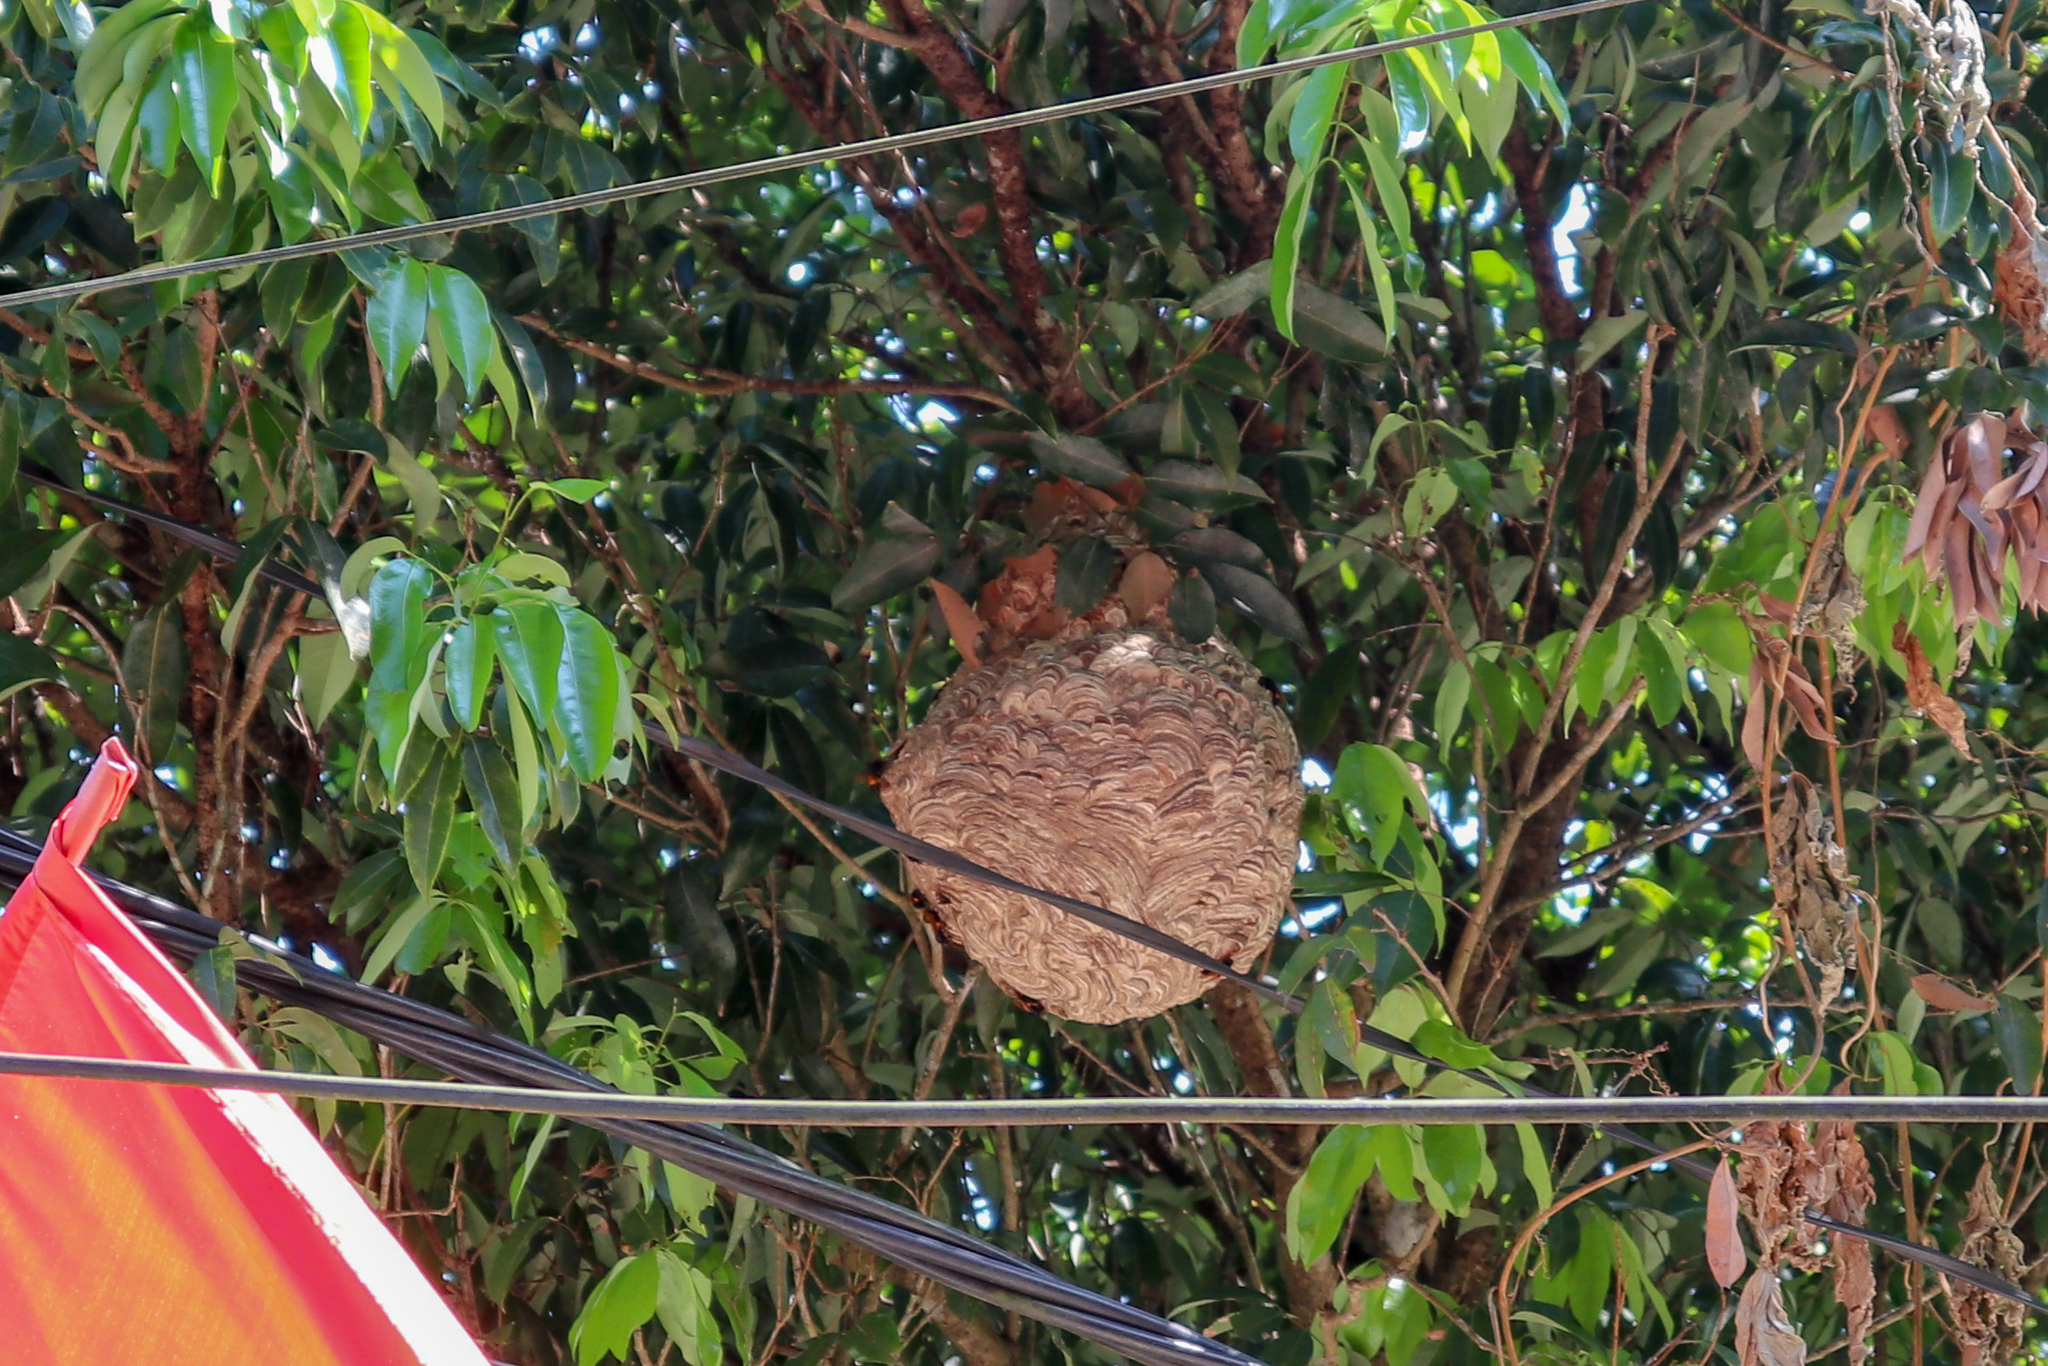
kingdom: Animalia
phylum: Arthropoda
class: Insecta
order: Hymenoptera
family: Vespidae
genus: Vespa
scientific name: Vespa affinis
